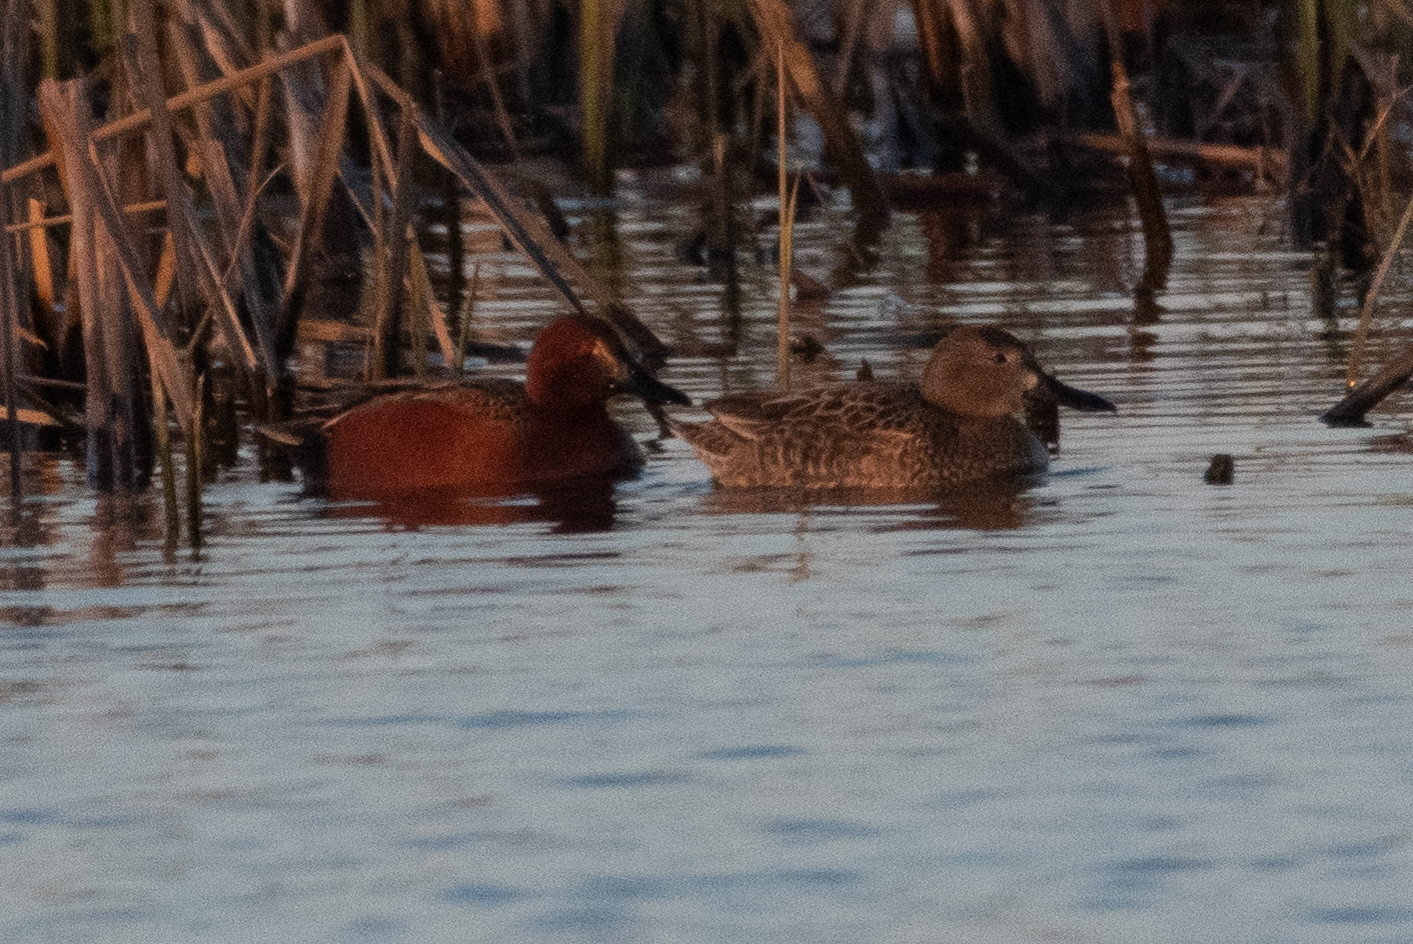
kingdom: Animalia
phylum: Chordata
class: Aves
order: Anseriformes
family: Anatidae
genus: Spatula
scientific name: Spatula cyanoptera
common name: Cinnamon teal
